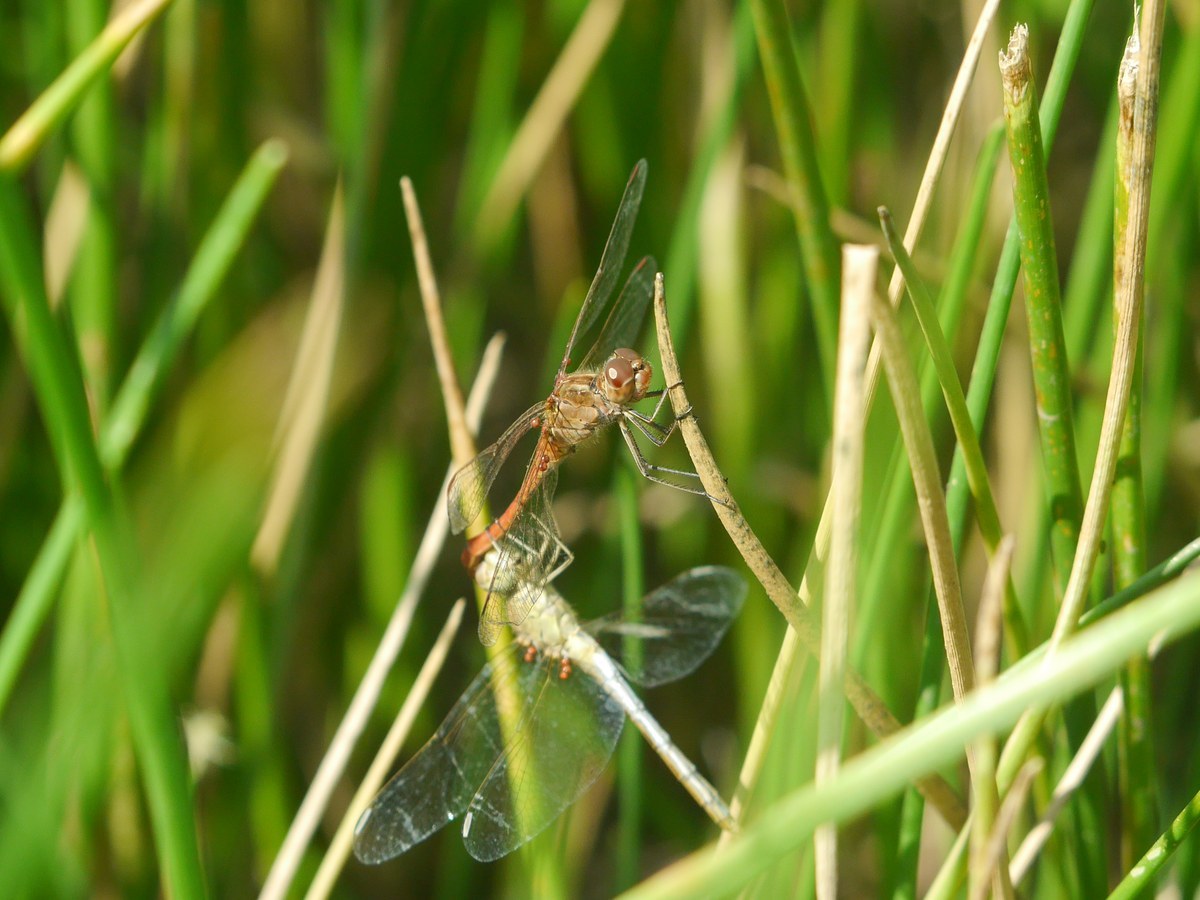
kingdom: Animalia
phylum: Arthropoda
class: Insecta
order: Odonata
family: Libellulidae
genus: Sympetrum
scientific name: Sympetrum meridionale
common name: Southern darter
